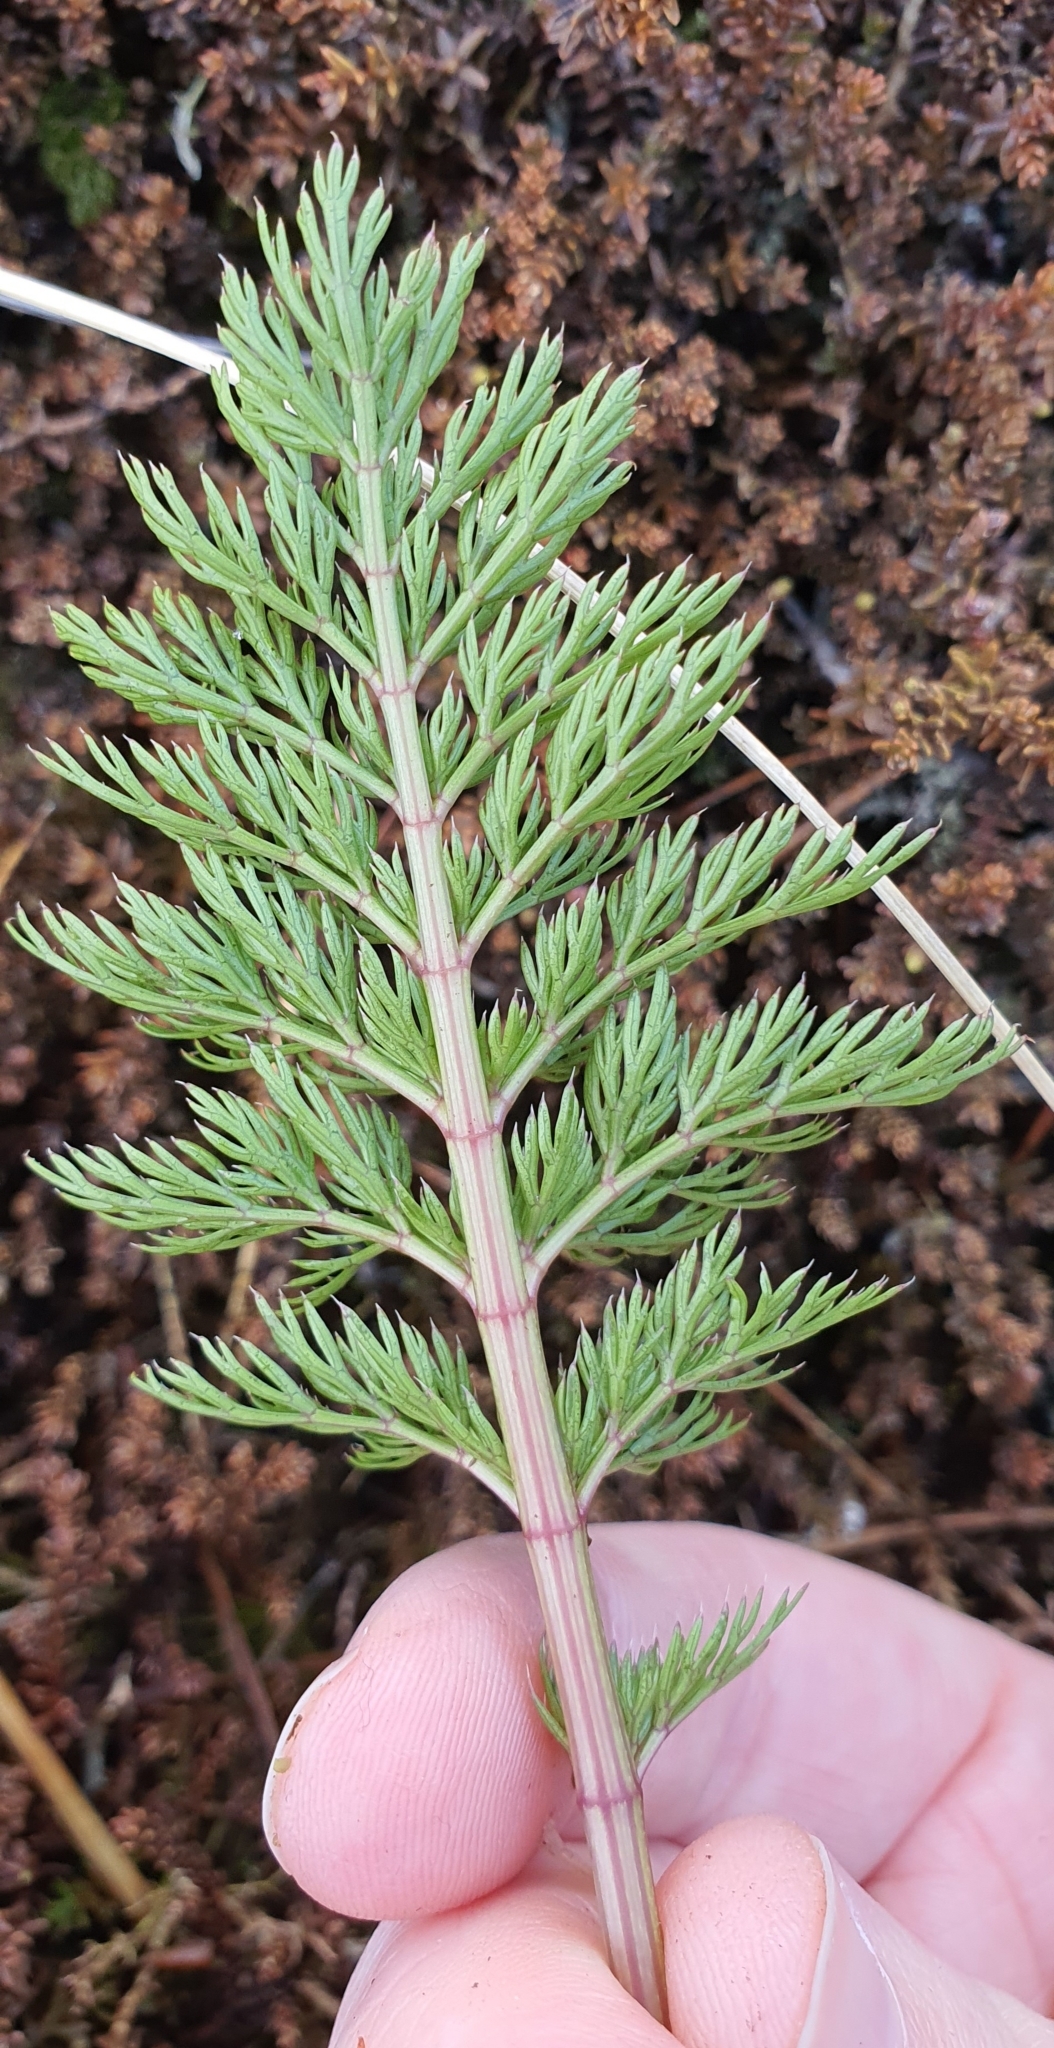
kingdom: Plantae
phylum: Tracheophyta
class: Magnoliopsida
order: Apiales
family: Apiaceae
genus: Anisotome
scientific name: Anisotome haastii
